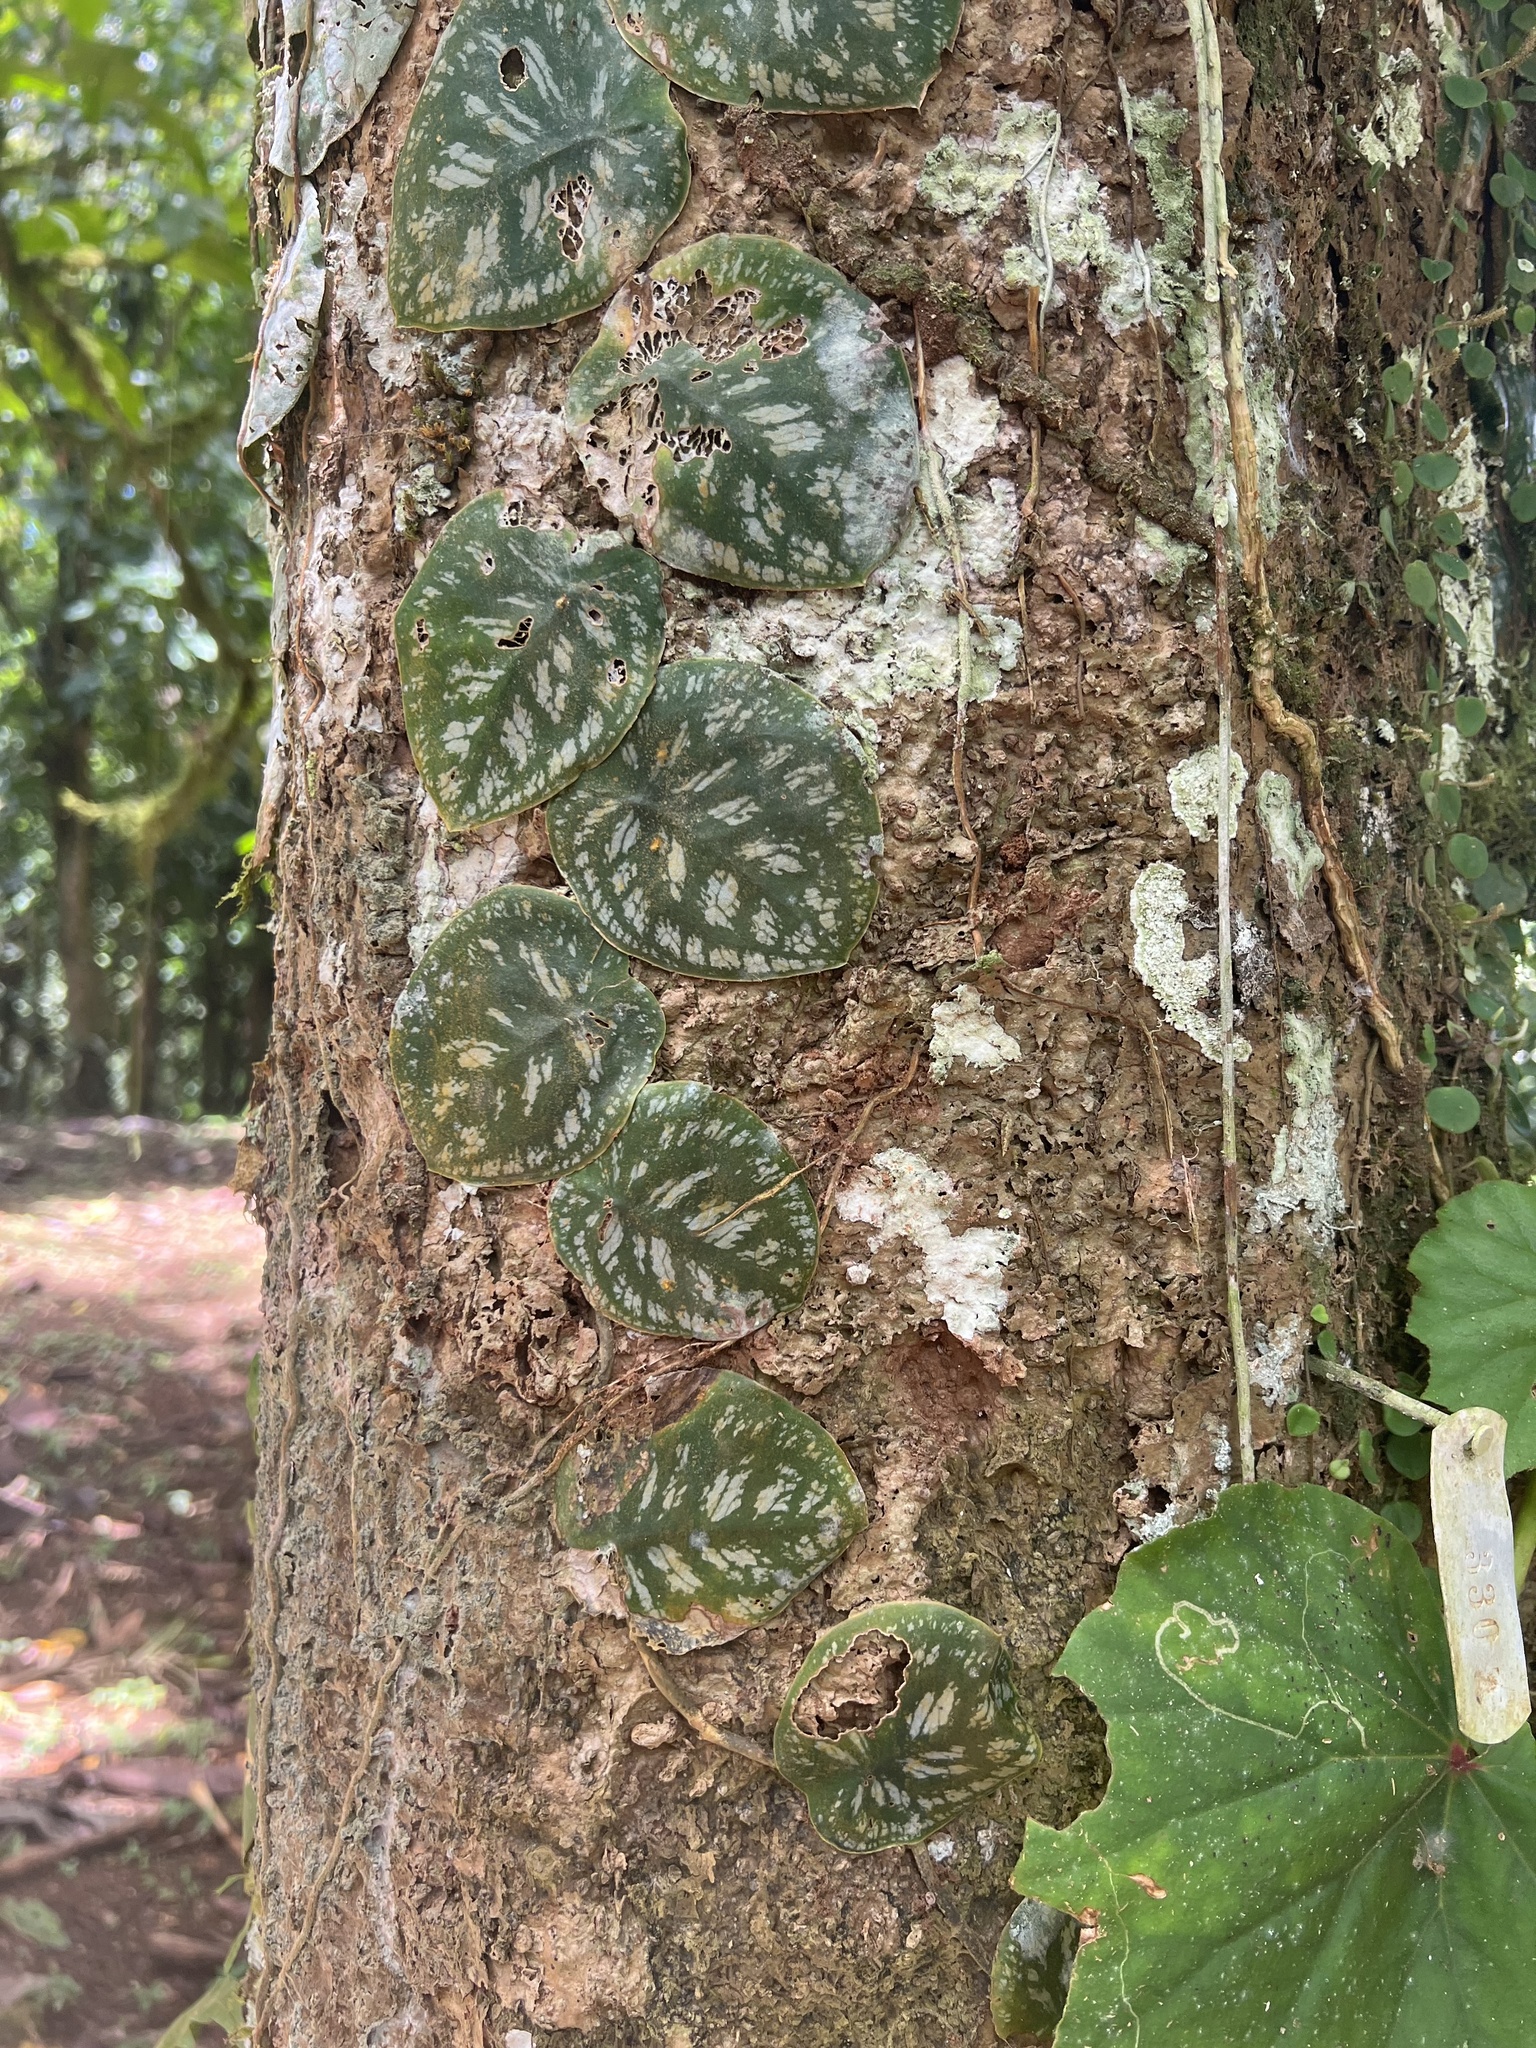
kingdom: Plantae
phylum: Tracheophyta
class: Liliopsida
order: Alismatales
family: Araceae
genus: Monstera
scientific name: Monstera tuberculata
